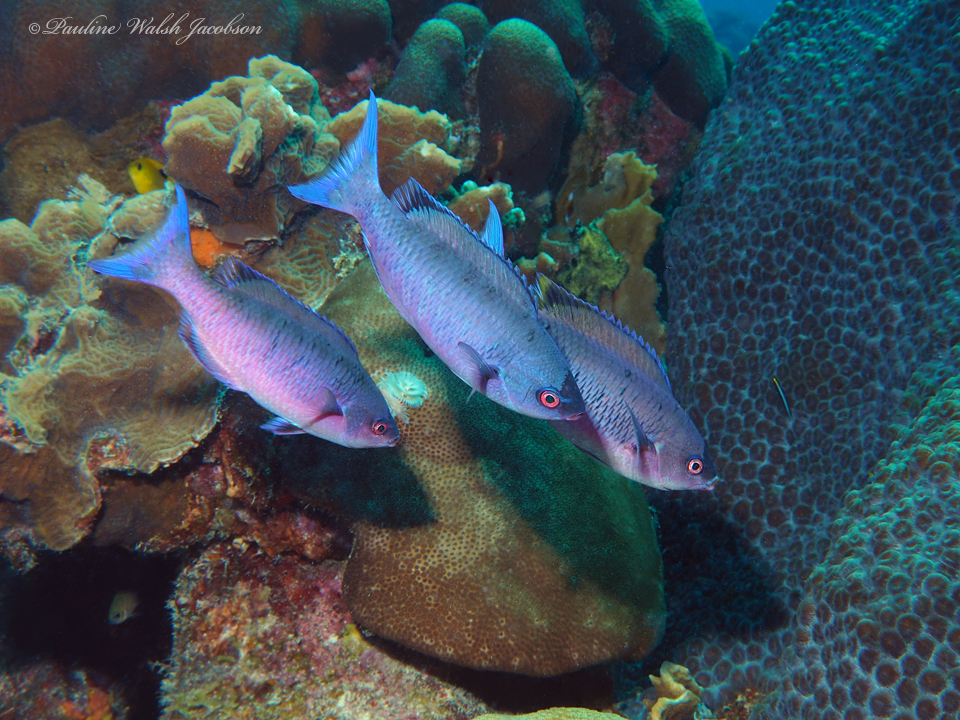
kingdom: Animalia
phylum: Chordata
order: Perciformes
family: Labridae
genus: Bodianus
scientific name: Bodianus
